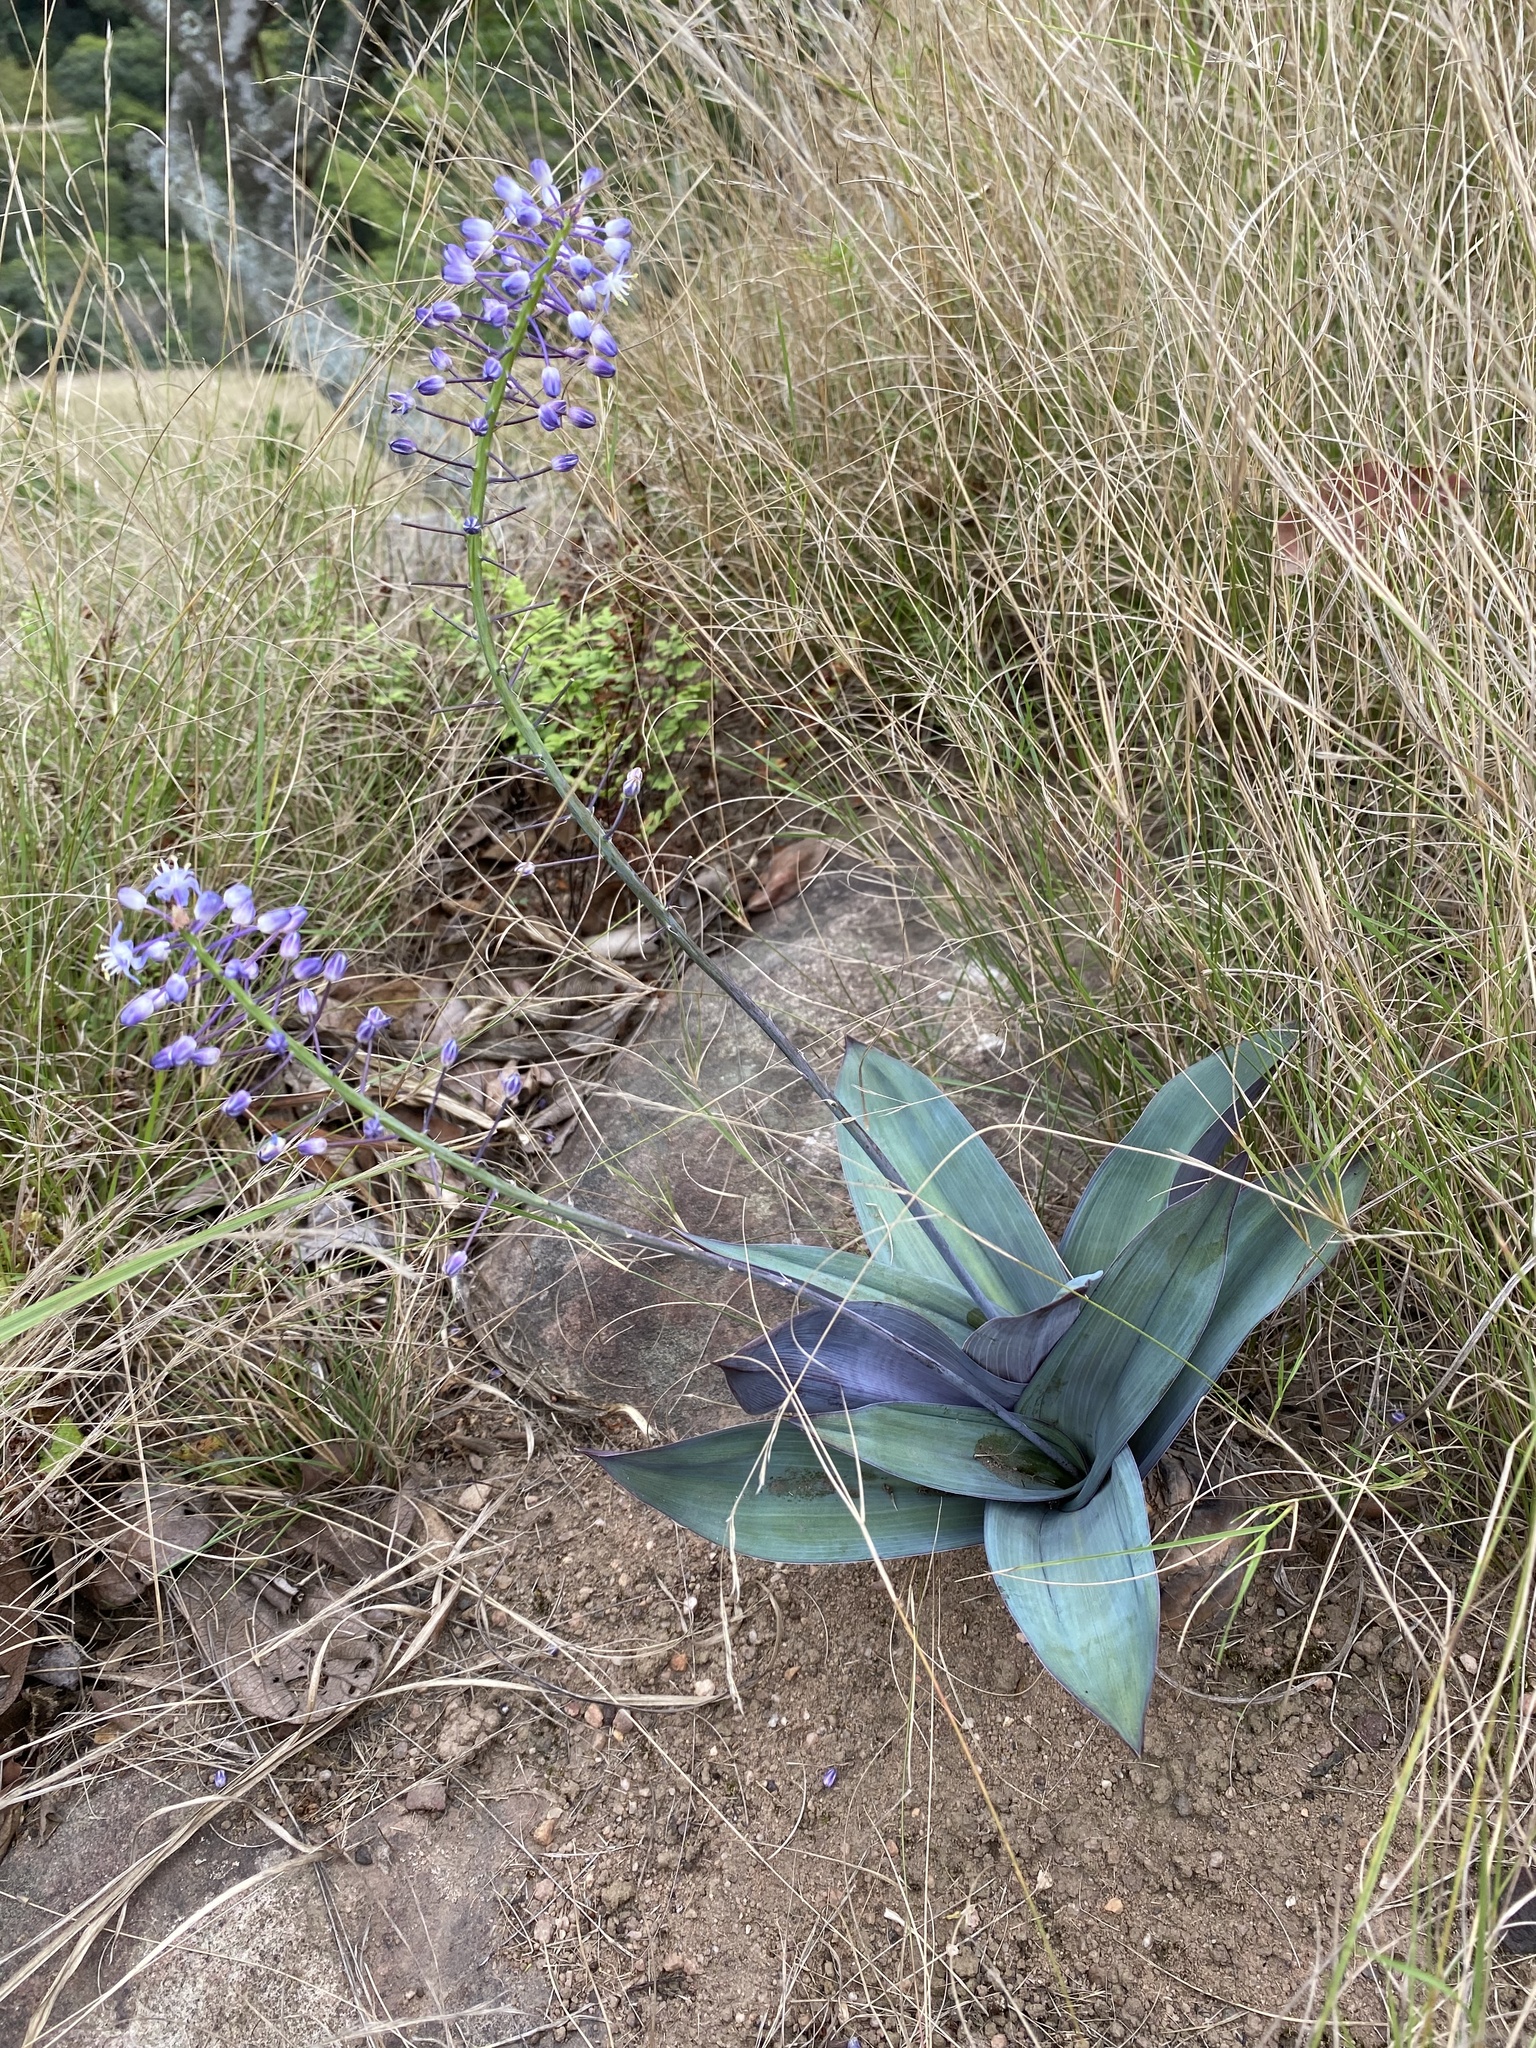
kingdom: Plantae
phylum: Tracheophyta
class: Liliopsida
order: Asparagales
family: Asparagaceae
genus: Merwilla
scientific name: Merwilla plumbea
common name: Blue-squill
